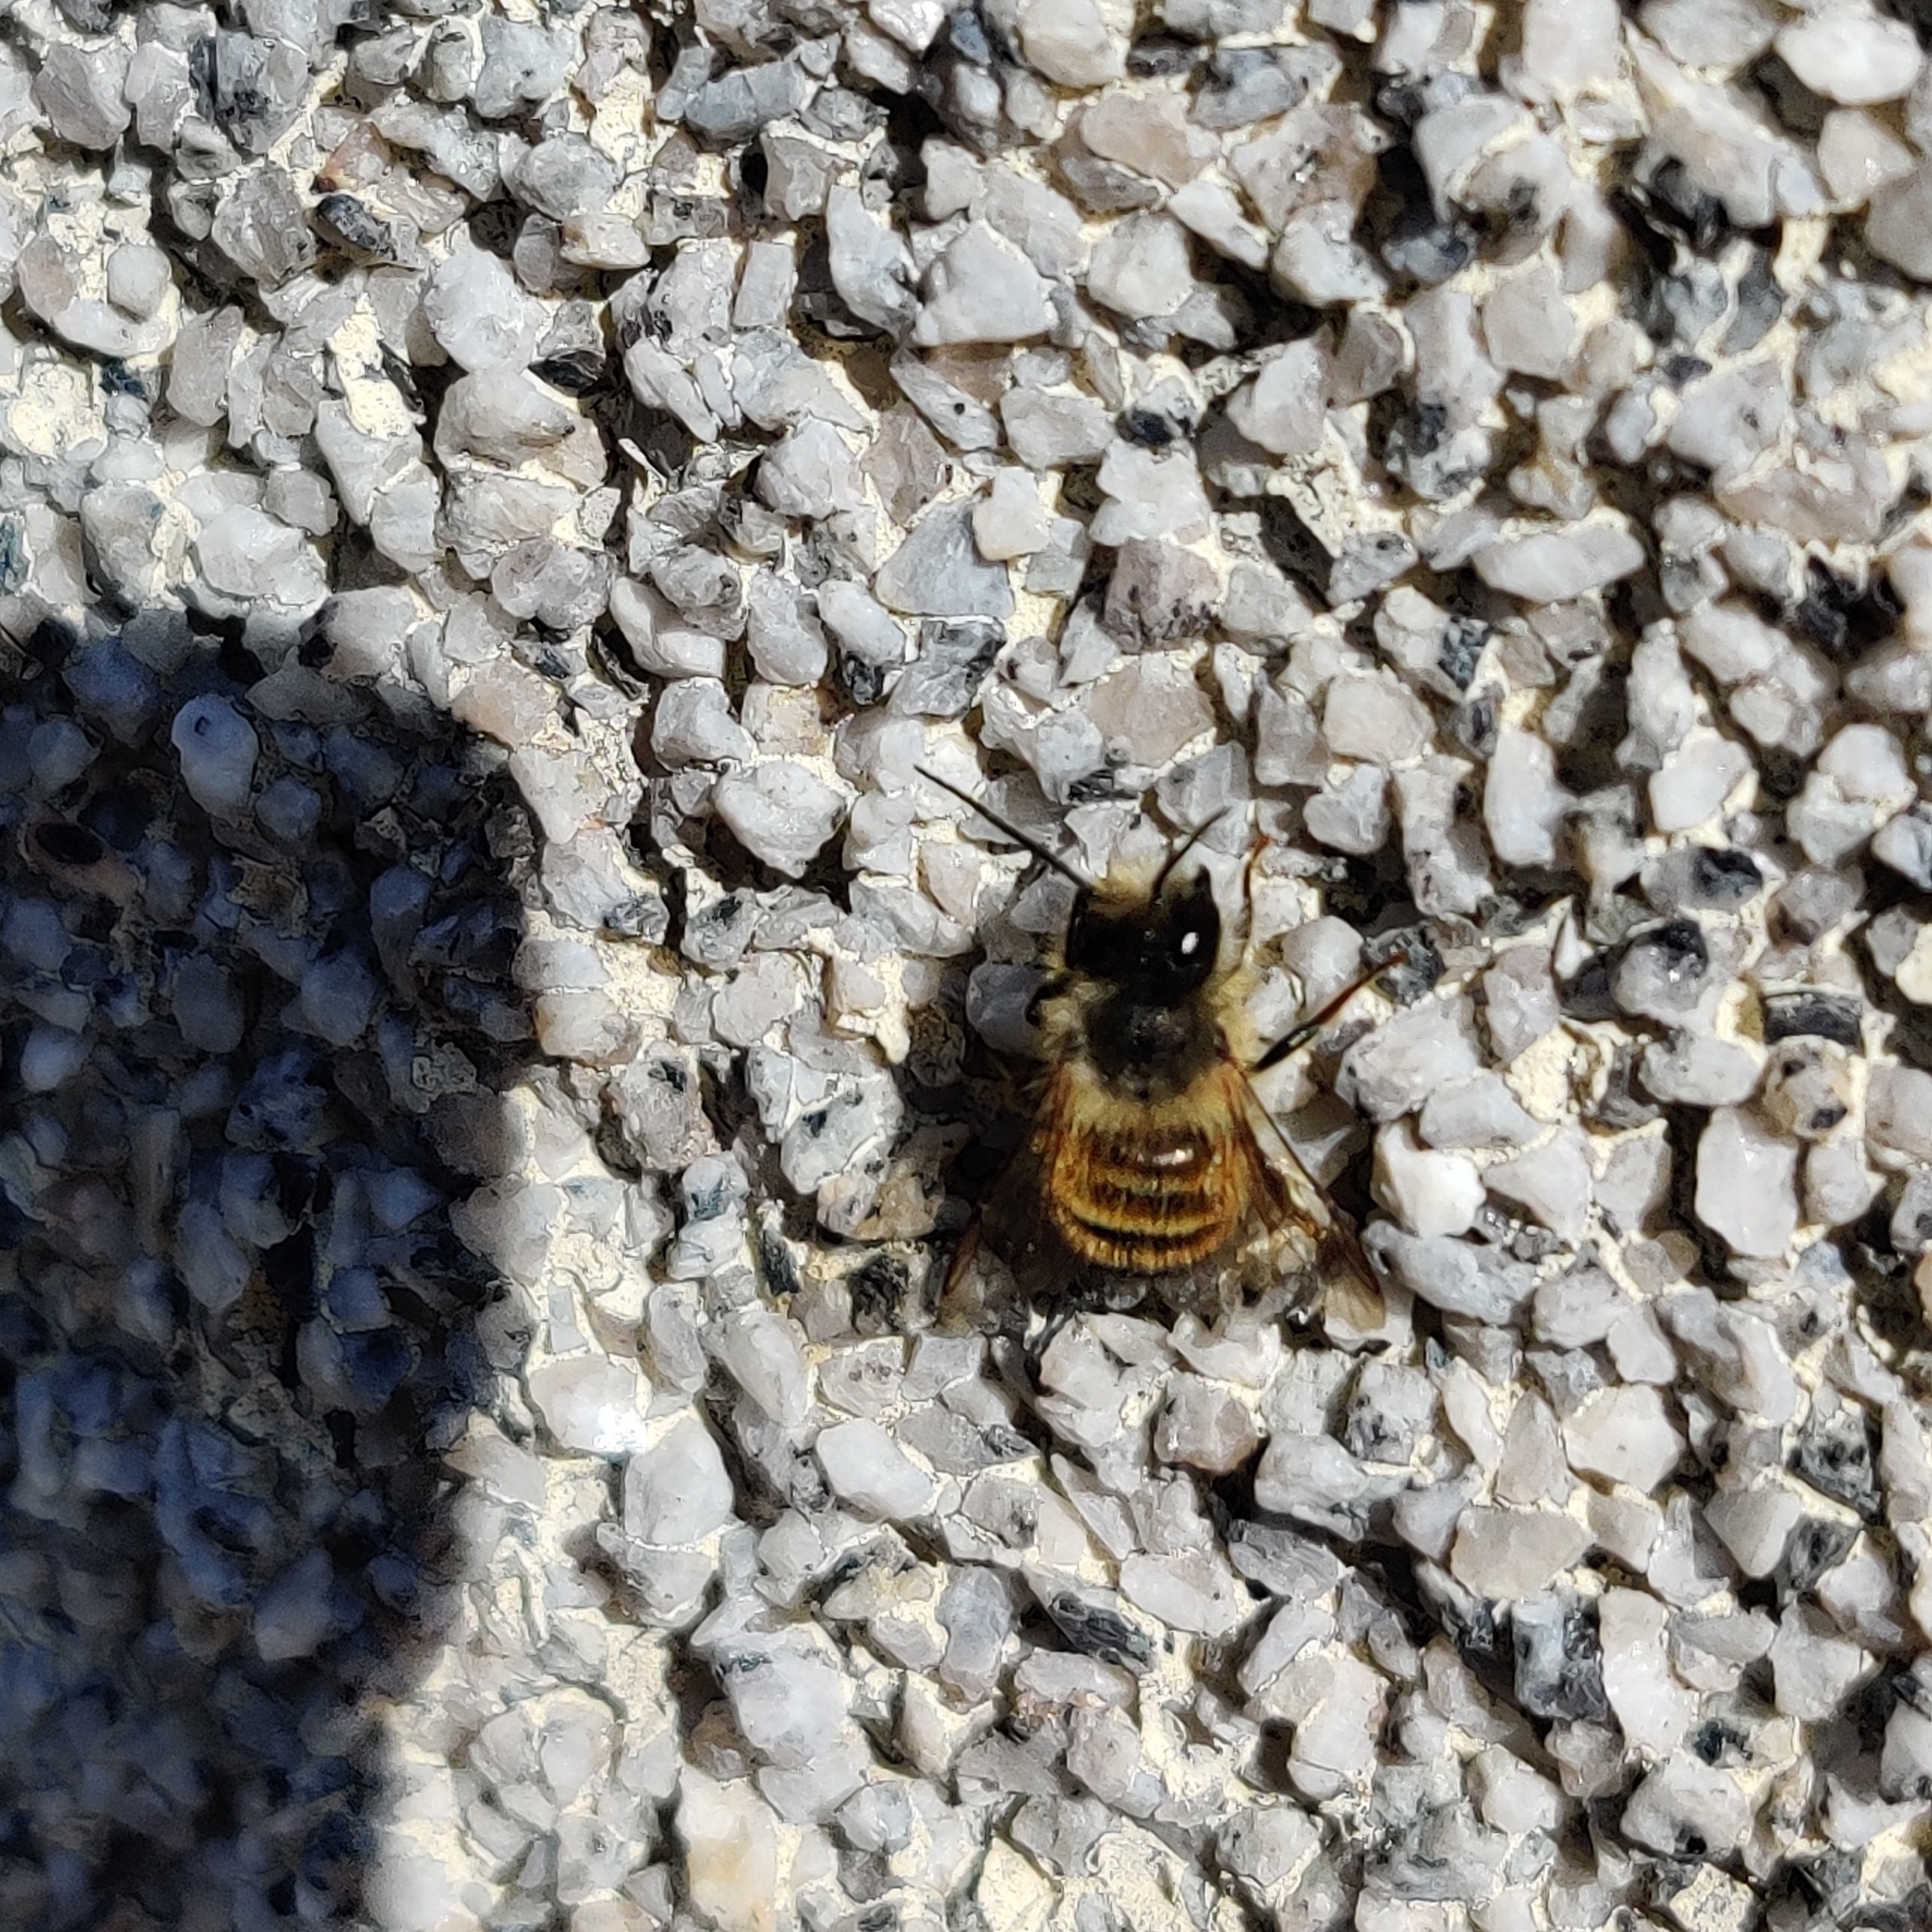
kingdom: Animalia
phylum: Arthropoda
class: Insecta
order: Hymenoptera
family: Megachilidae
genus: Osmia
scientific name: Osmia bicornis
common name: Red mason bee
